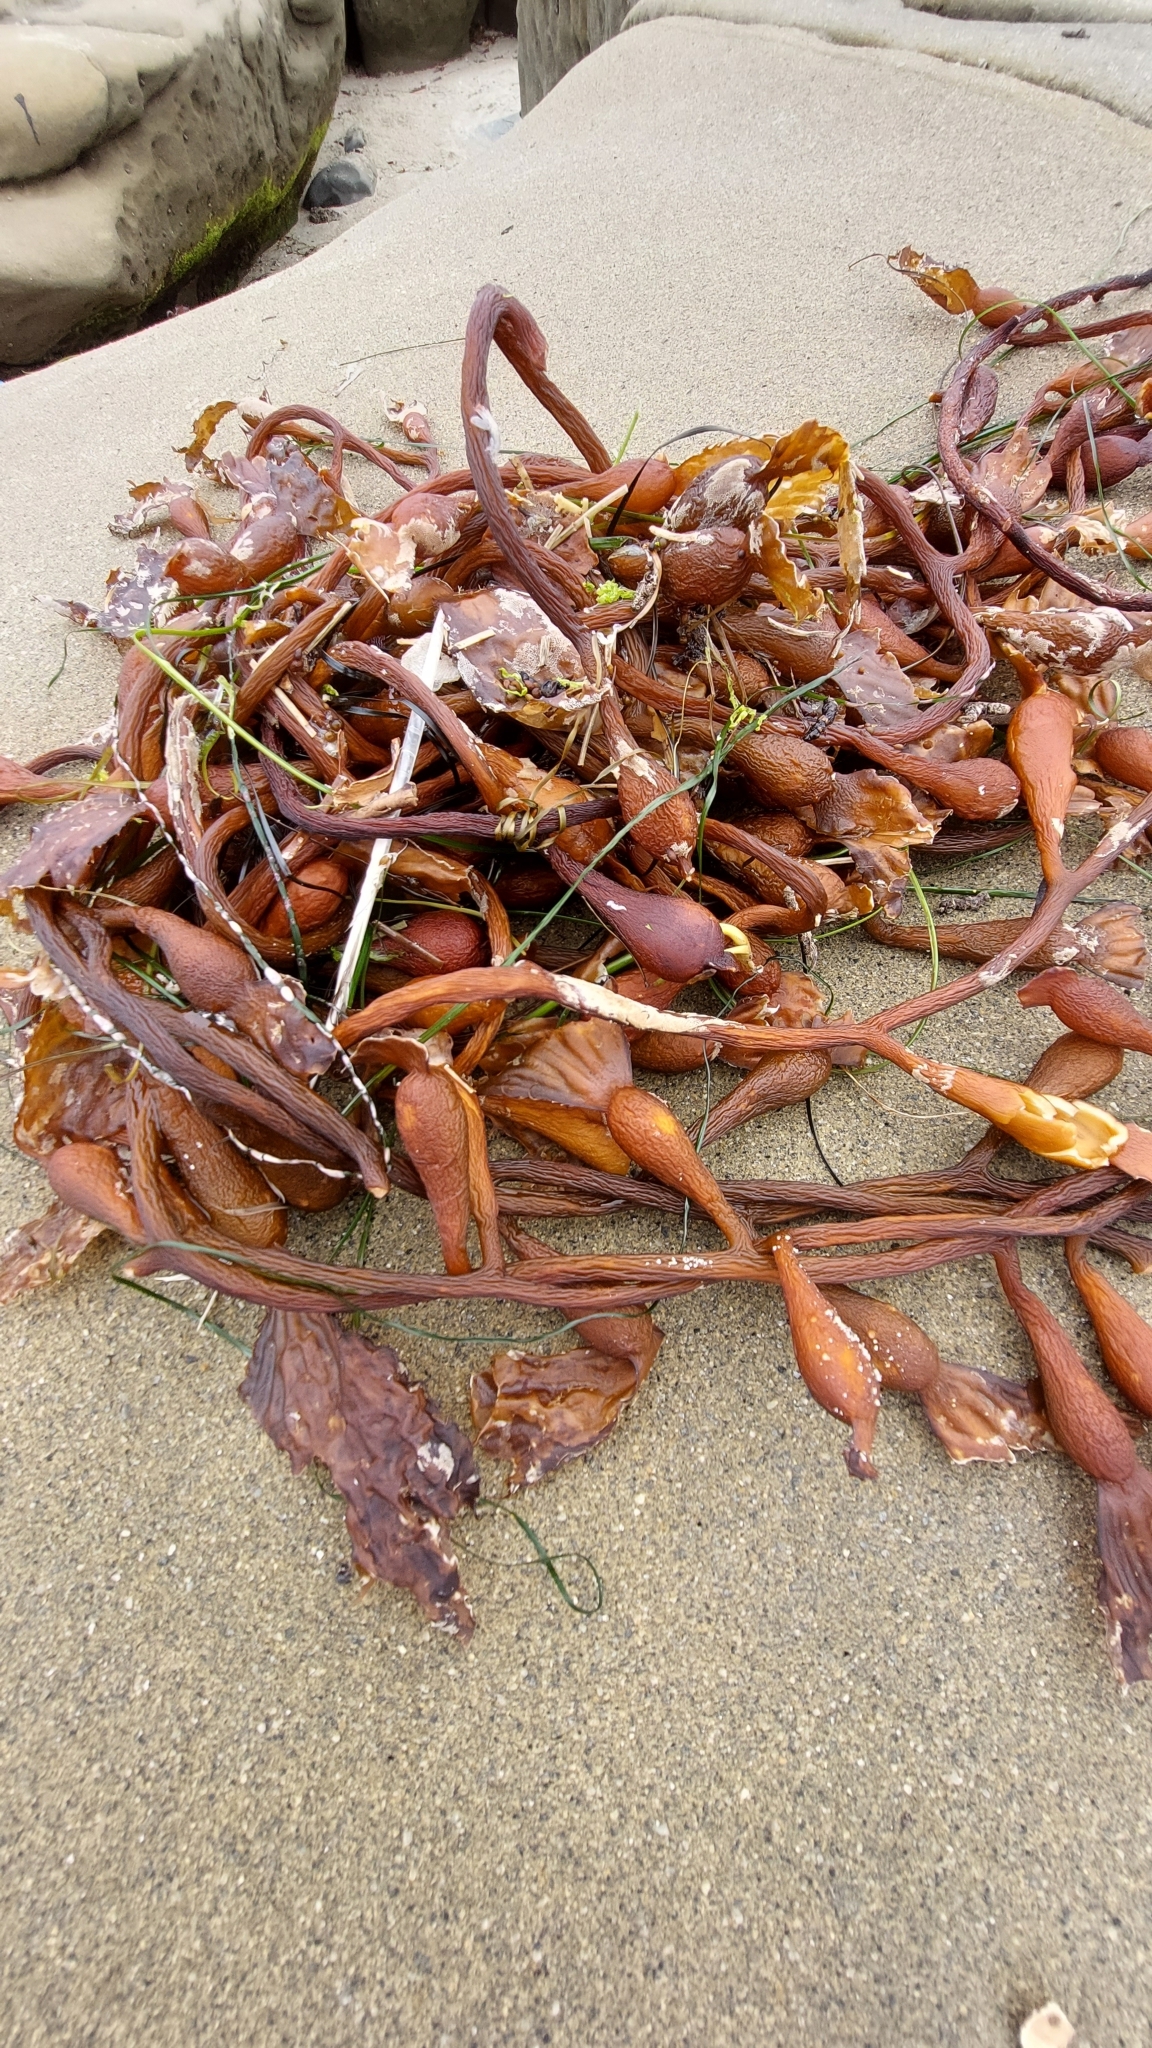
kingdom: Chromista
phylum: Ochrophyta
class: Phaeophyceae
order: Laminariales
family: Laminariaceae
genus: Macrocystis
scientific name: Macrocystis pyrifera
